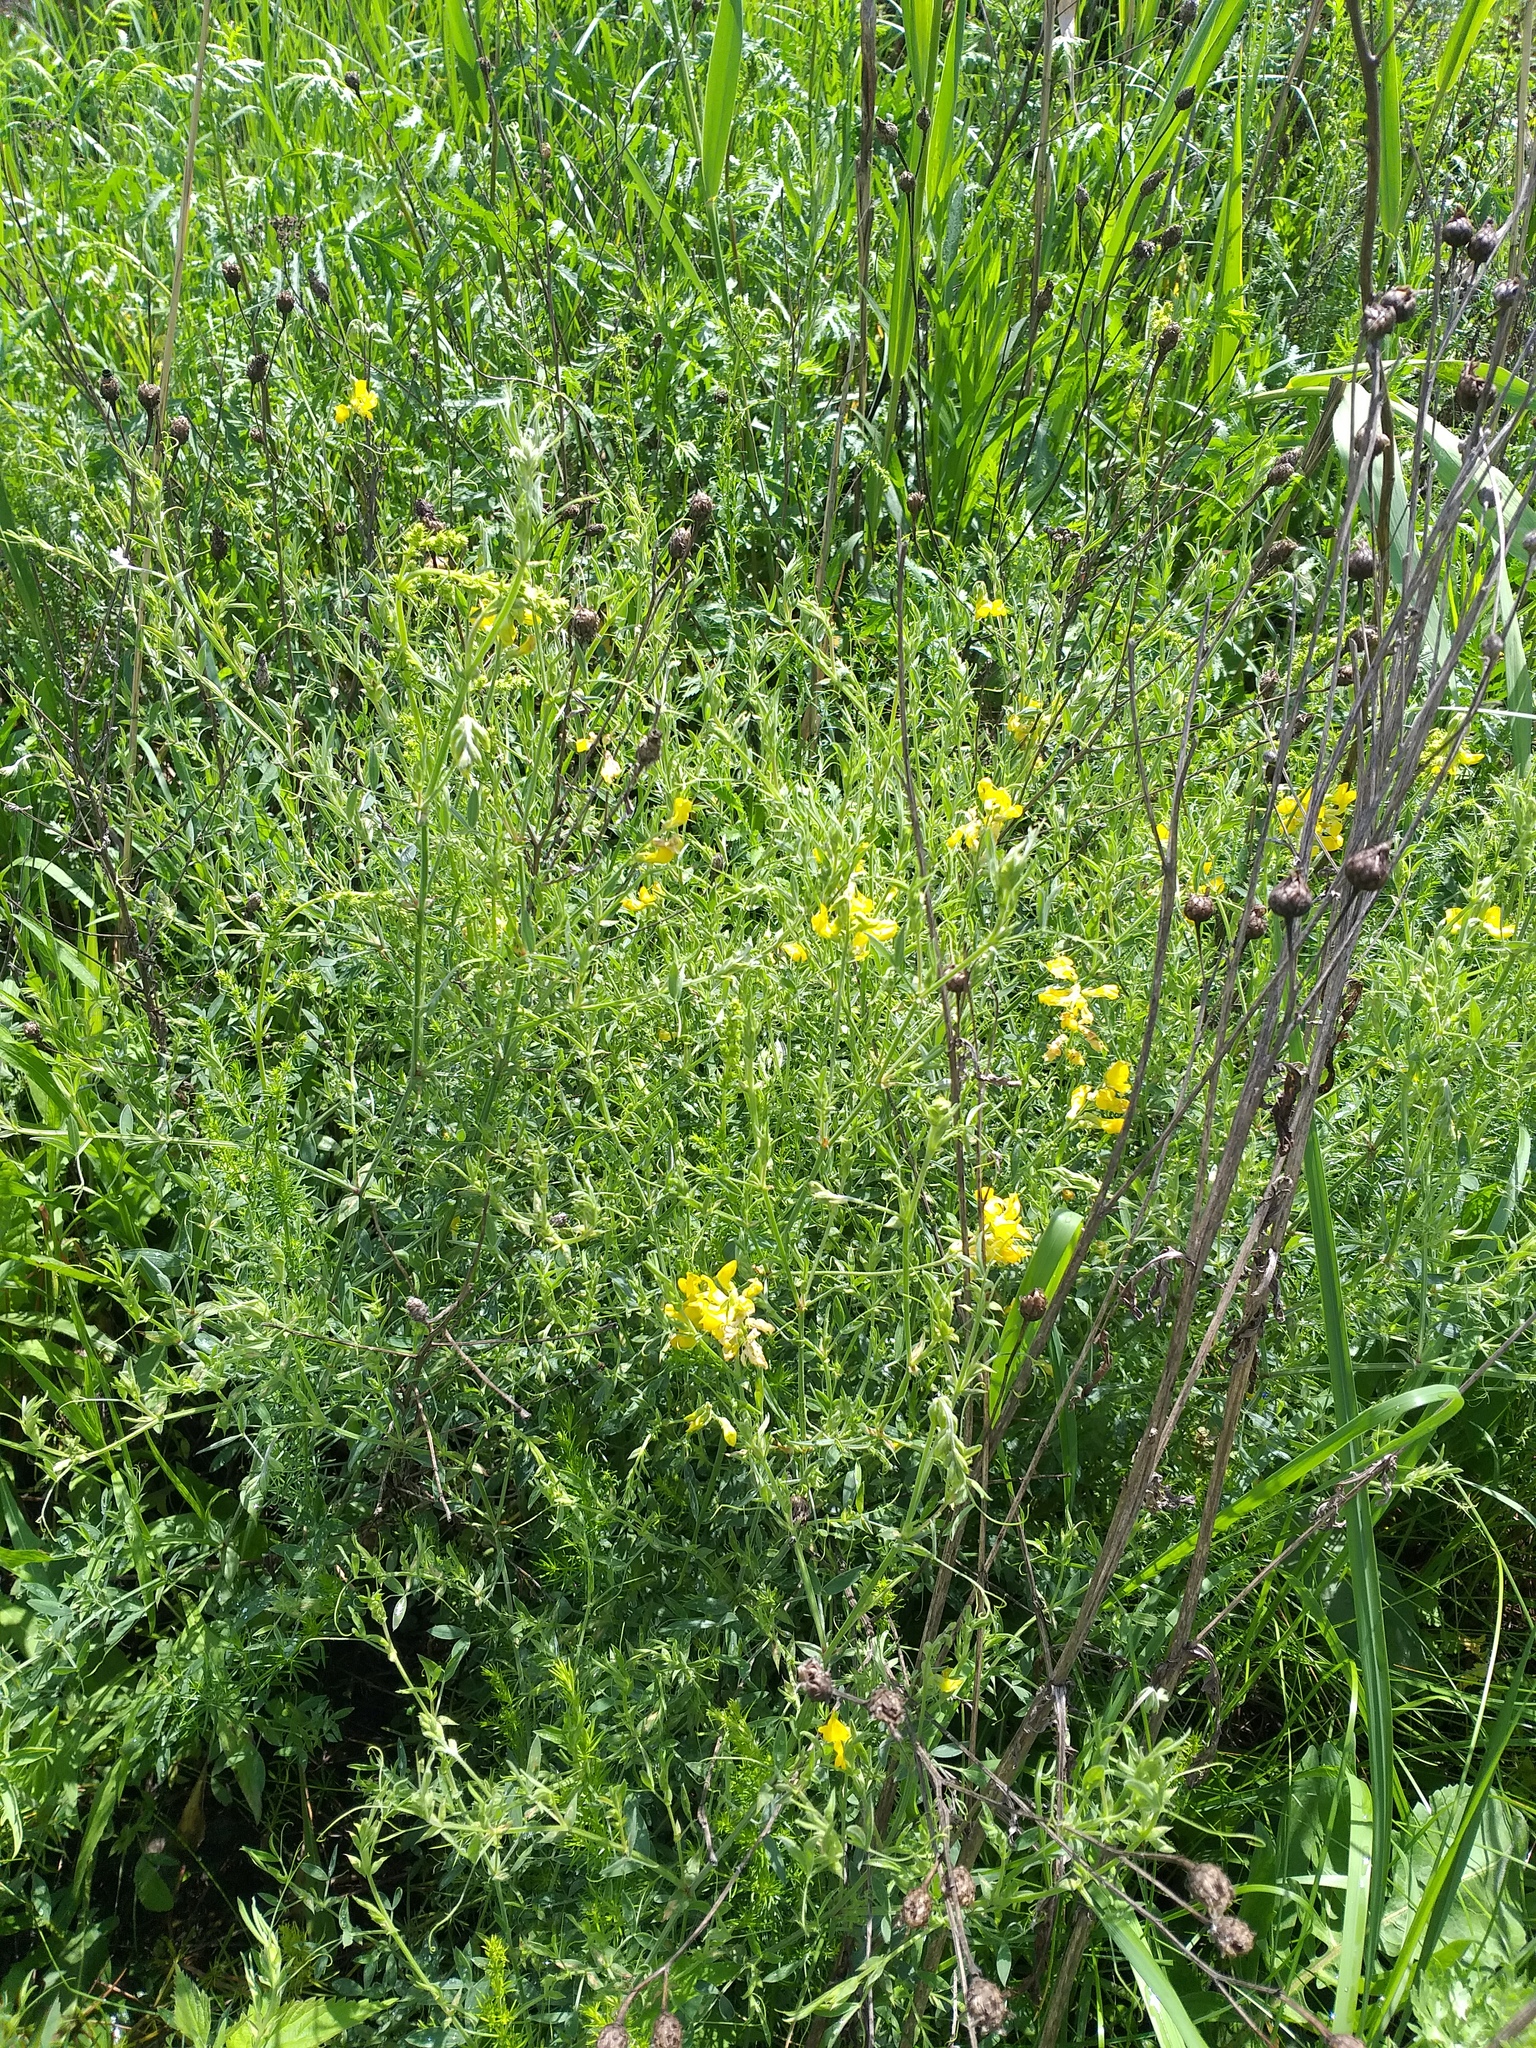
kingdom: Plantae
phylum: Tracheophyta
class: Magnoliopsida
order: Fabales
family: Fabaceae
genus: Lathyrus
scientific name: Lathyrus pratensis
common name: Meadow vetchling
